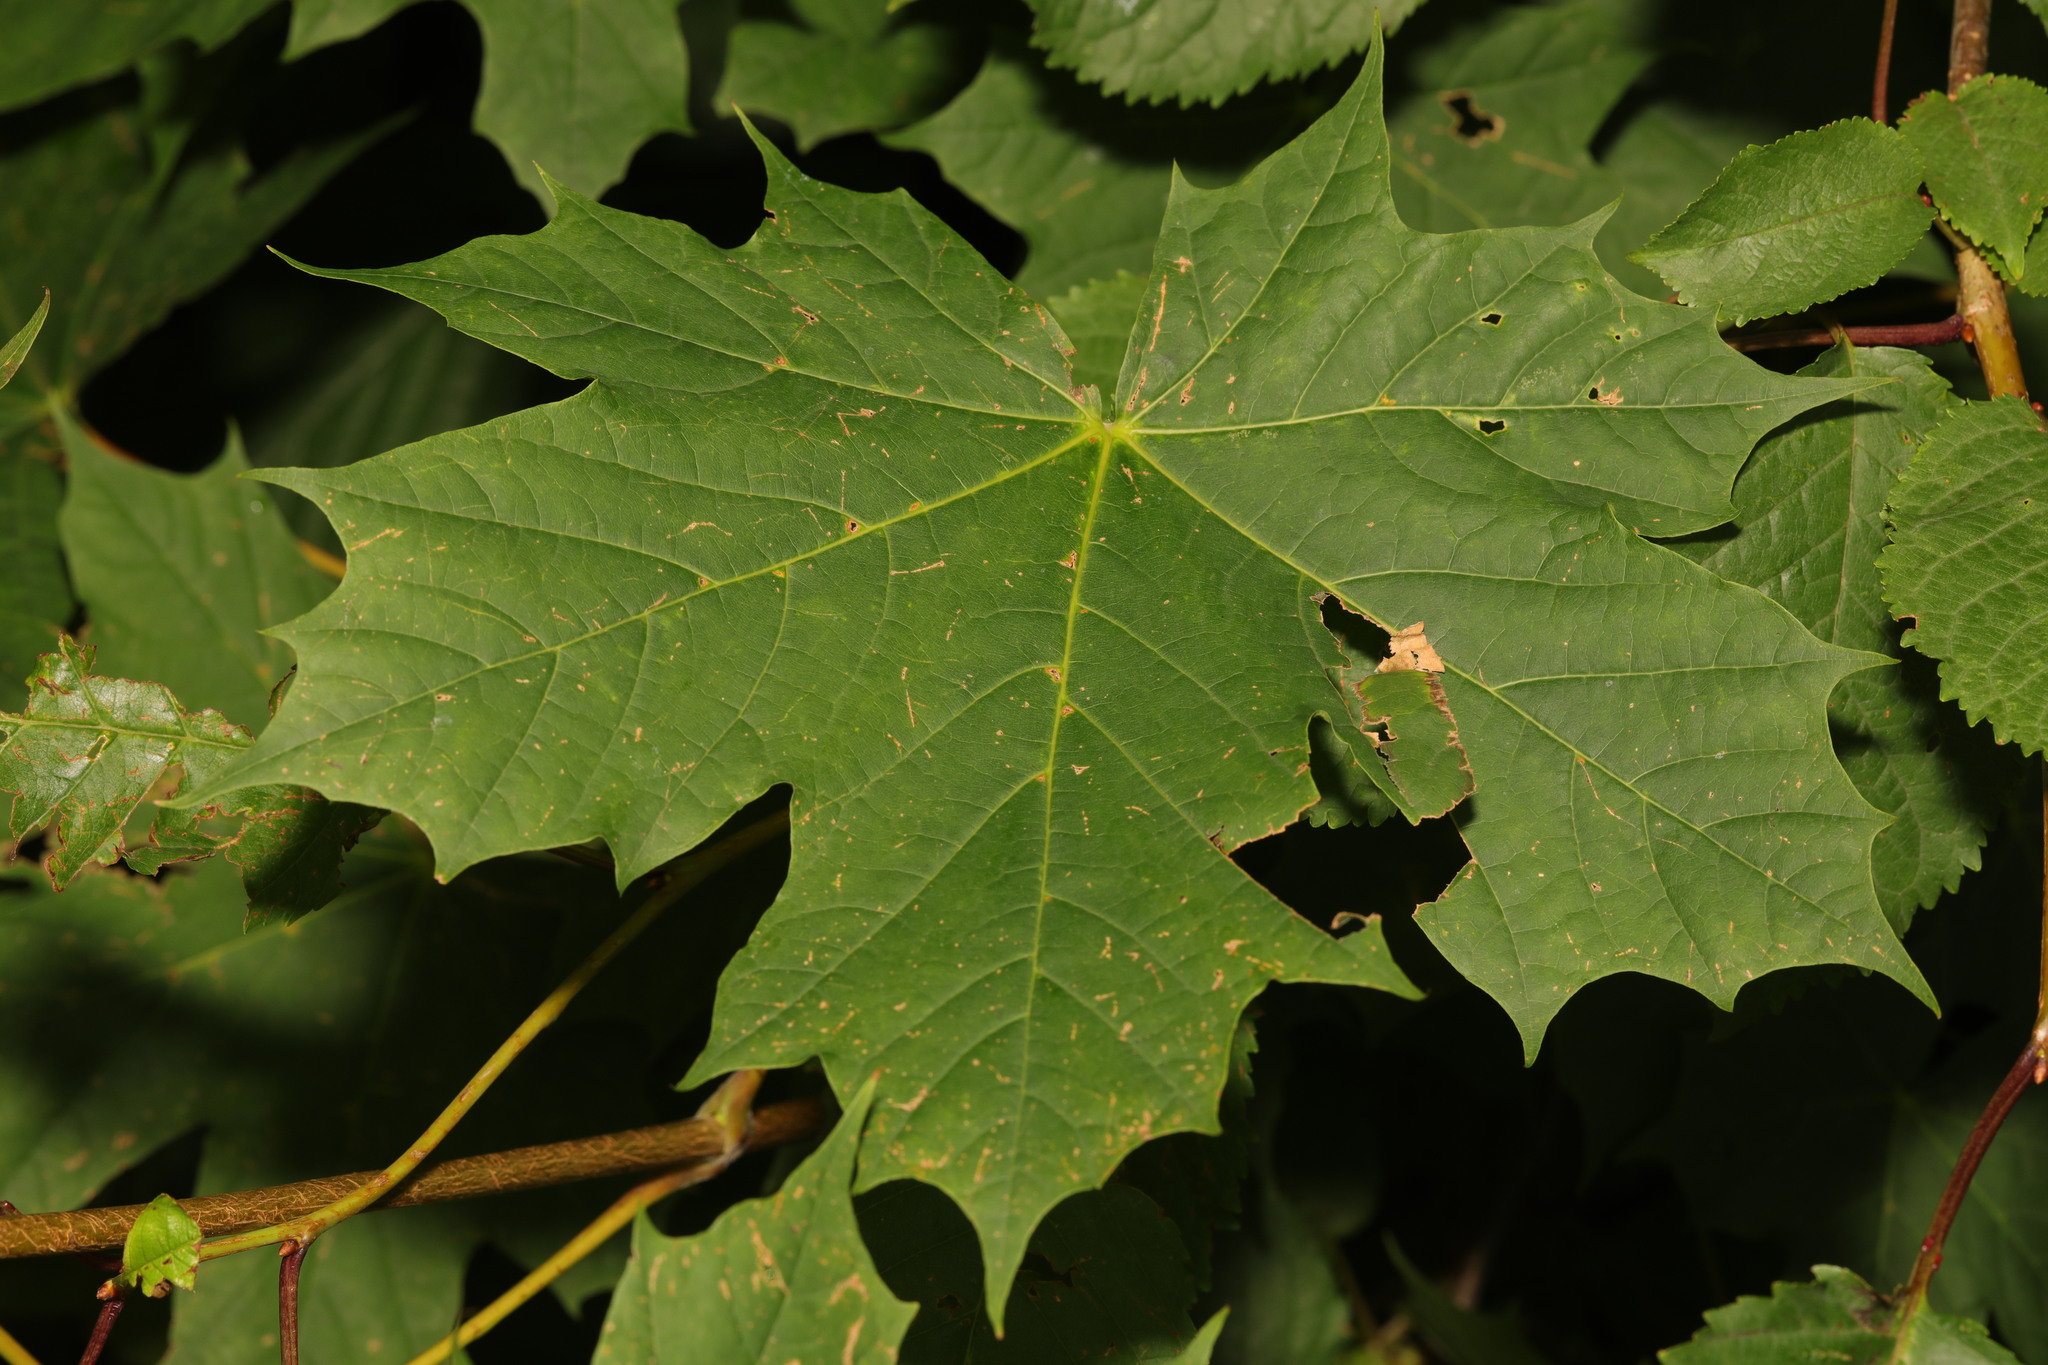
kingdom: Plantae
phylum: Tracheophyta
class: Magnoliopsida
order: Sapindales
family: Sapindaceae
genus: Acer
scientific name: Acer platanoides
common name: Norway maple
